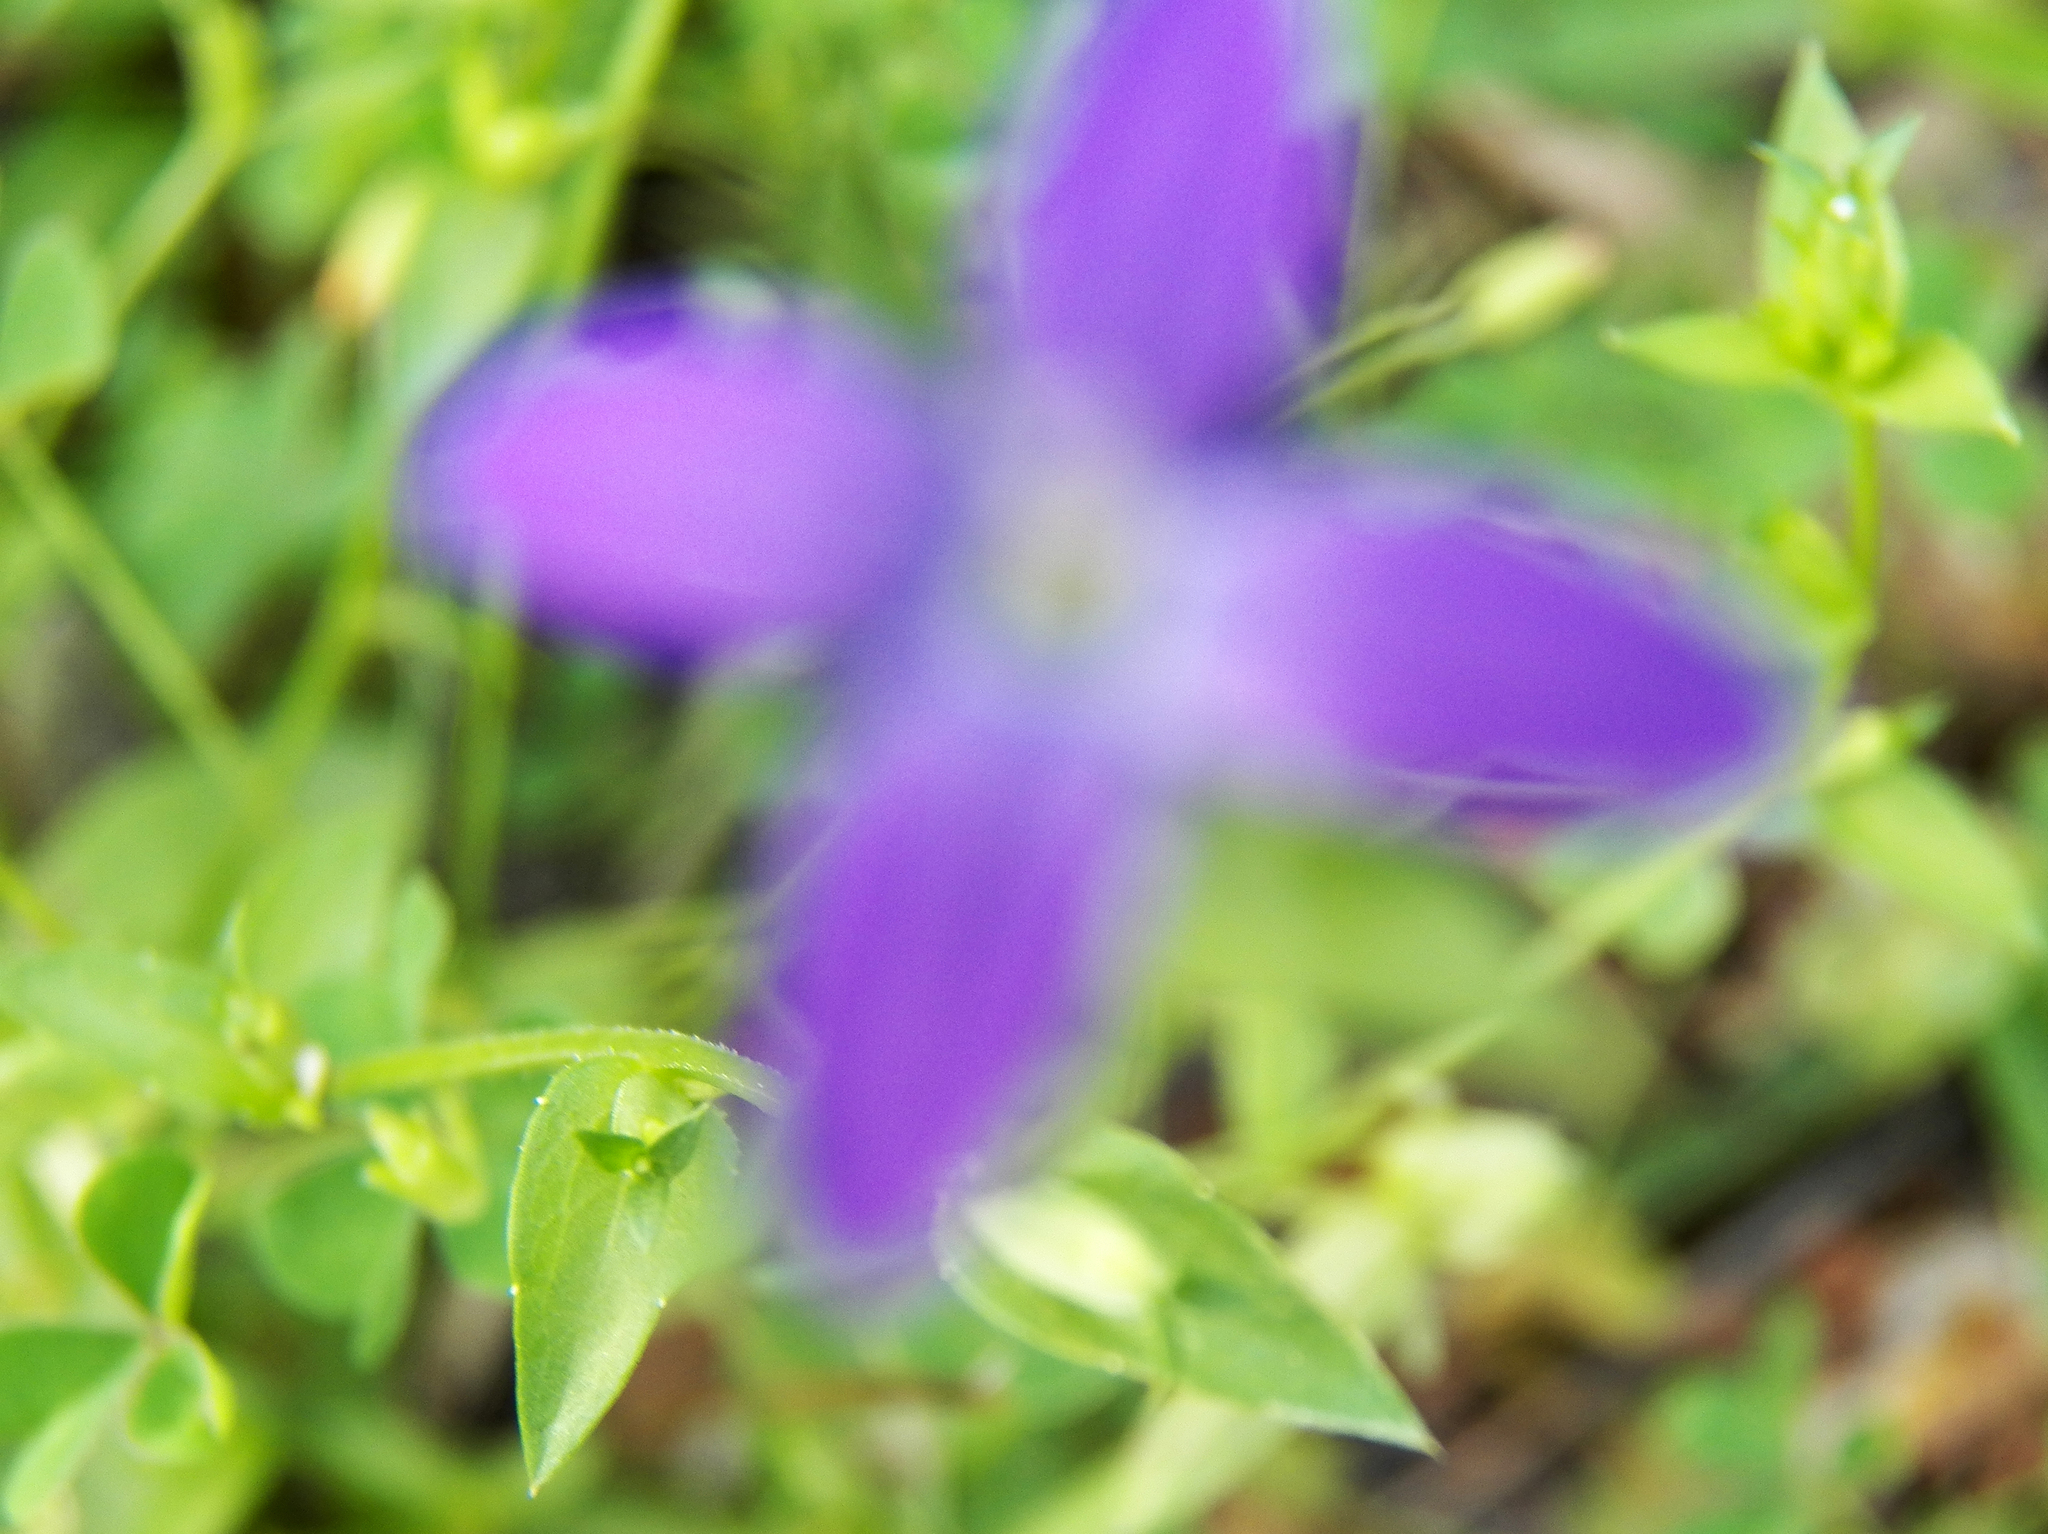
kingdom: Plantae
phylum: Tracheophyta
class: Magnoliopsida
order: Asterales
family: Campanulaceae
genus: Triodanis
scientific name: Triodanis biflora
